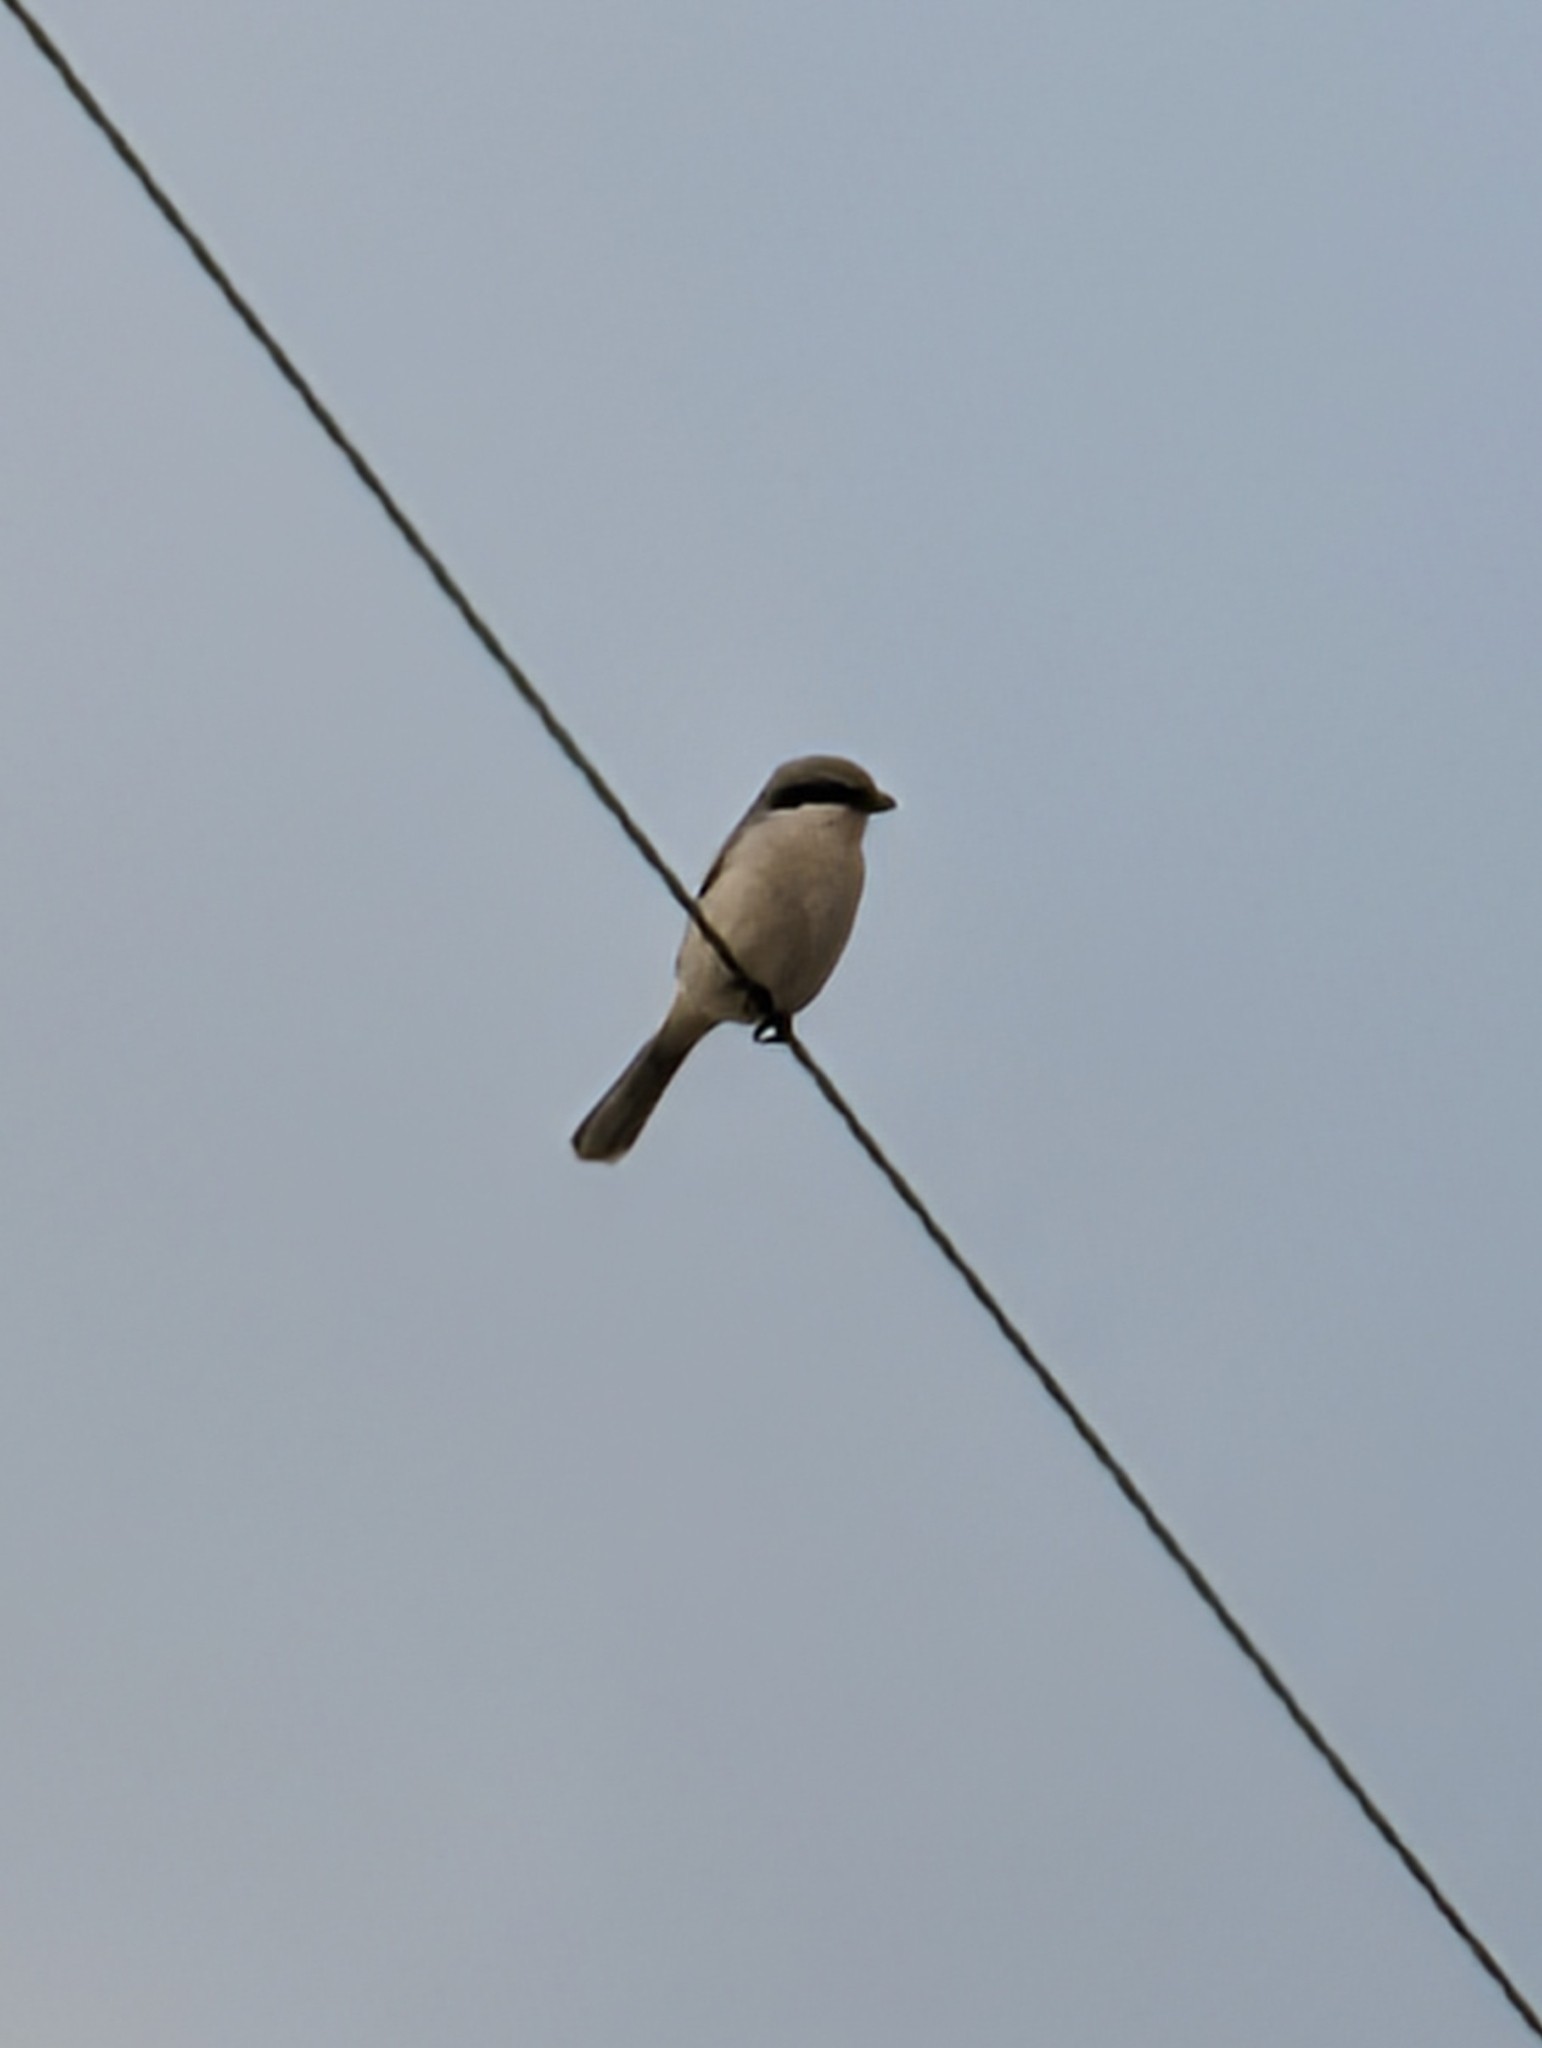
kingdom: Animalia
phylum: Chordata
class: Aves
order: Passeriformes
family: Laniidae
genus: Lanius
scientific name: Lanius ludovicianus
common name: Loggerhead shrike
